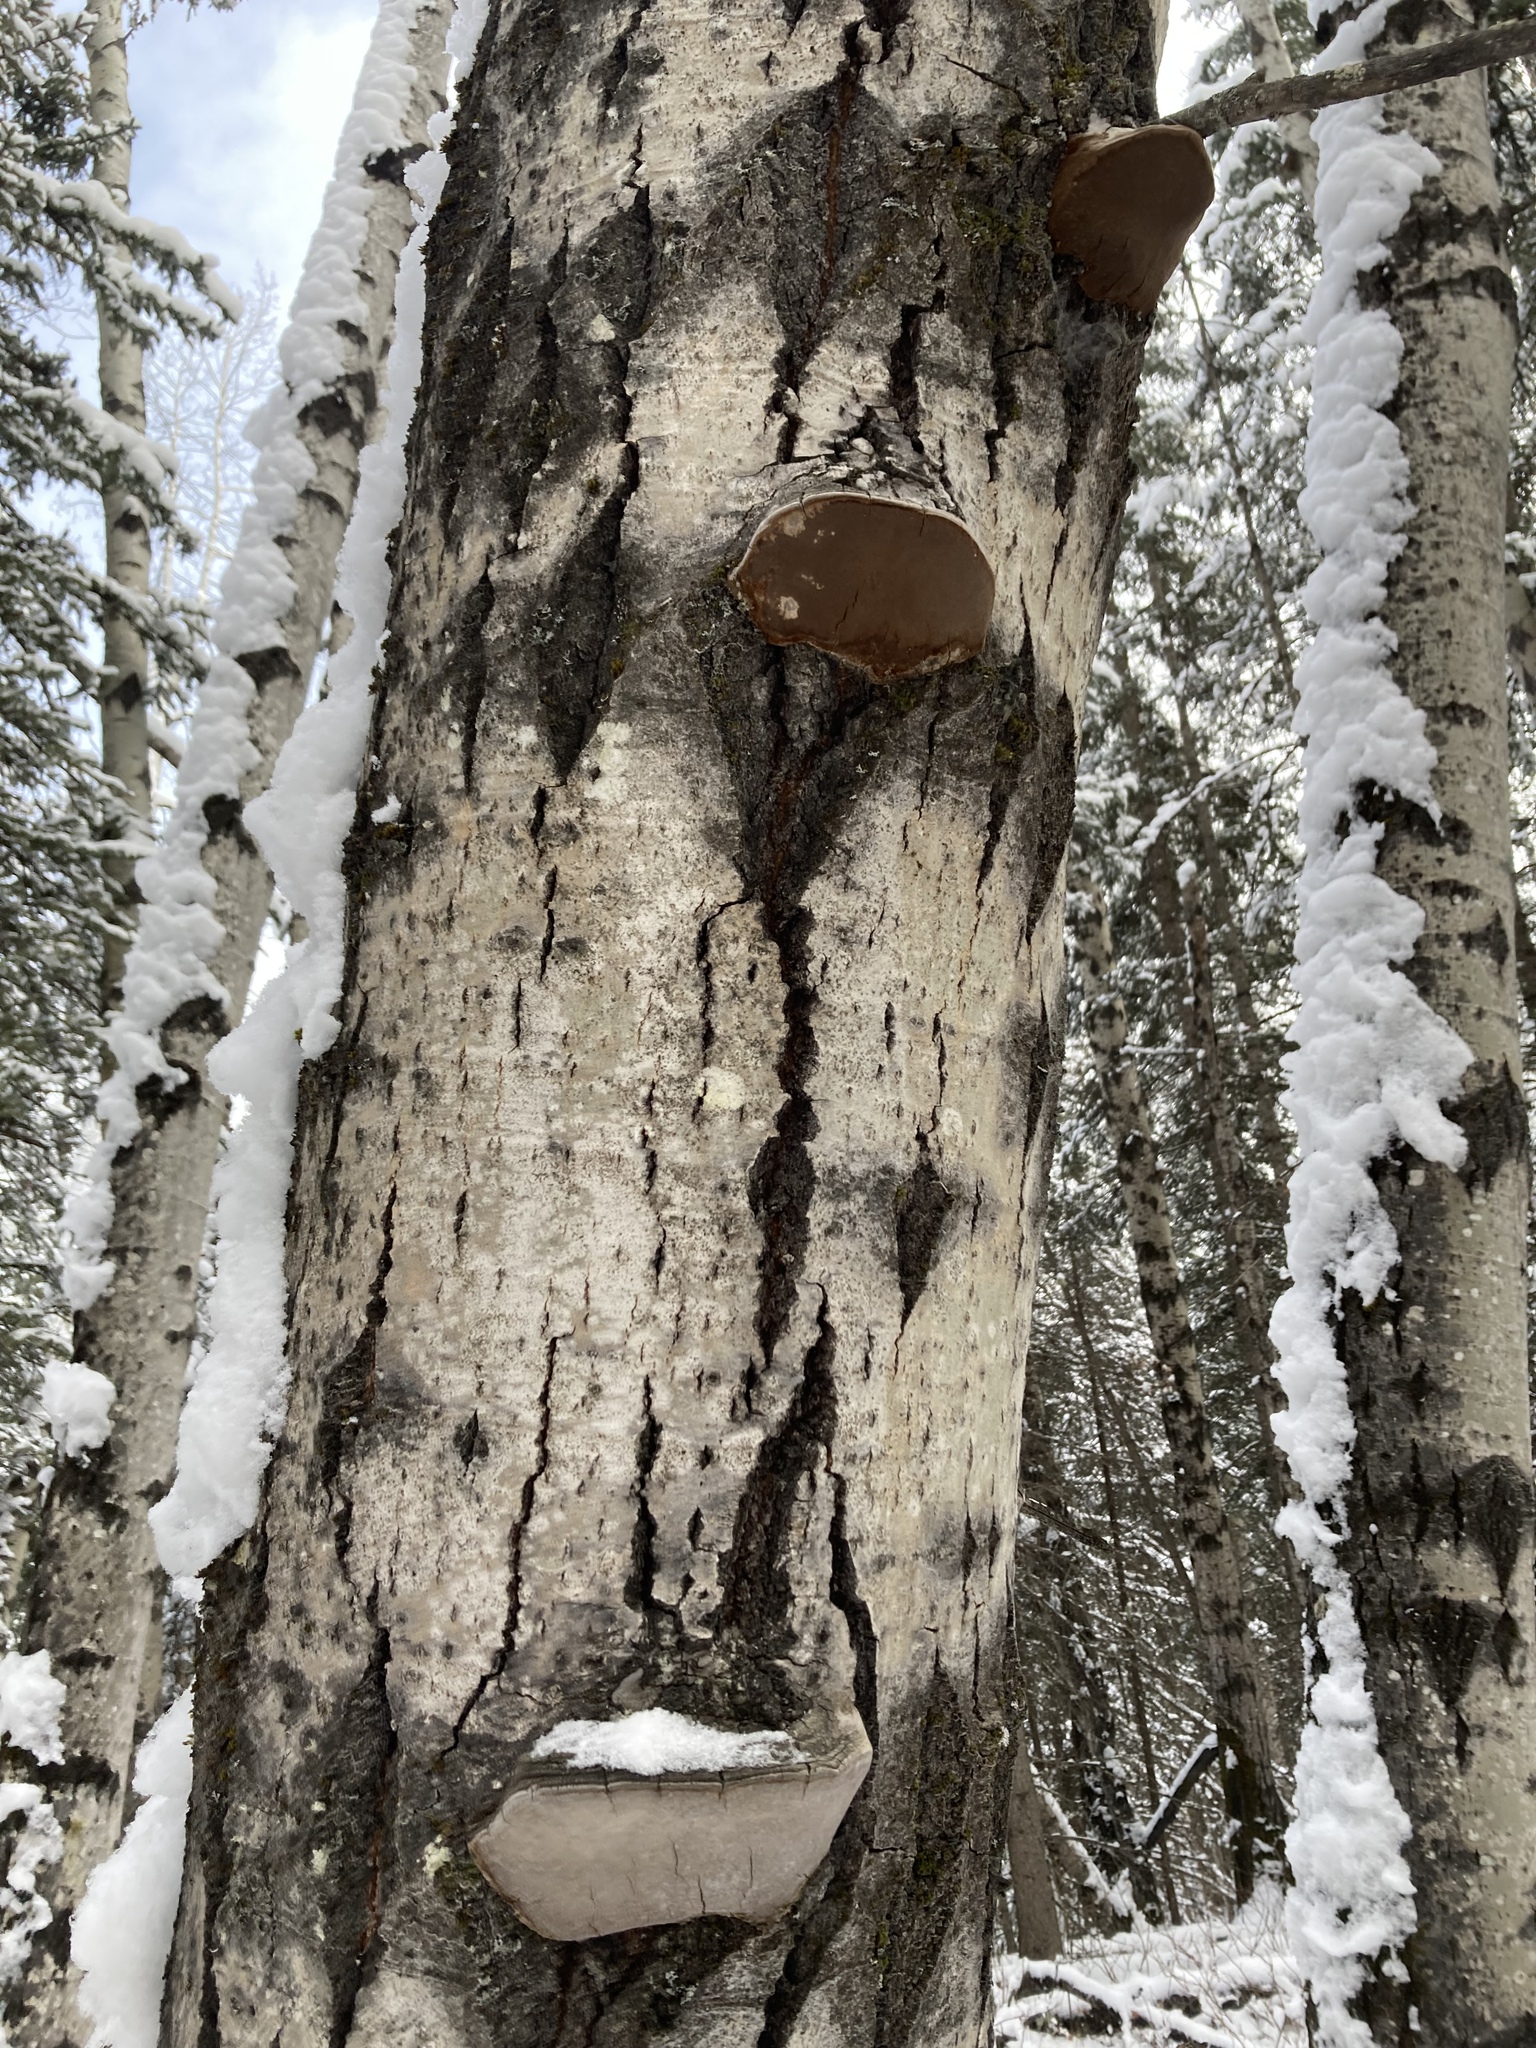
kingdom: Fungi
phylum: Basidiomycota
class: Agaricomycetes
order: Hymenochaetales
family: Hymenochaetaceae
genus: Phellinus
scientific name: Phellinus tremulae
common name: Aspen bracket
